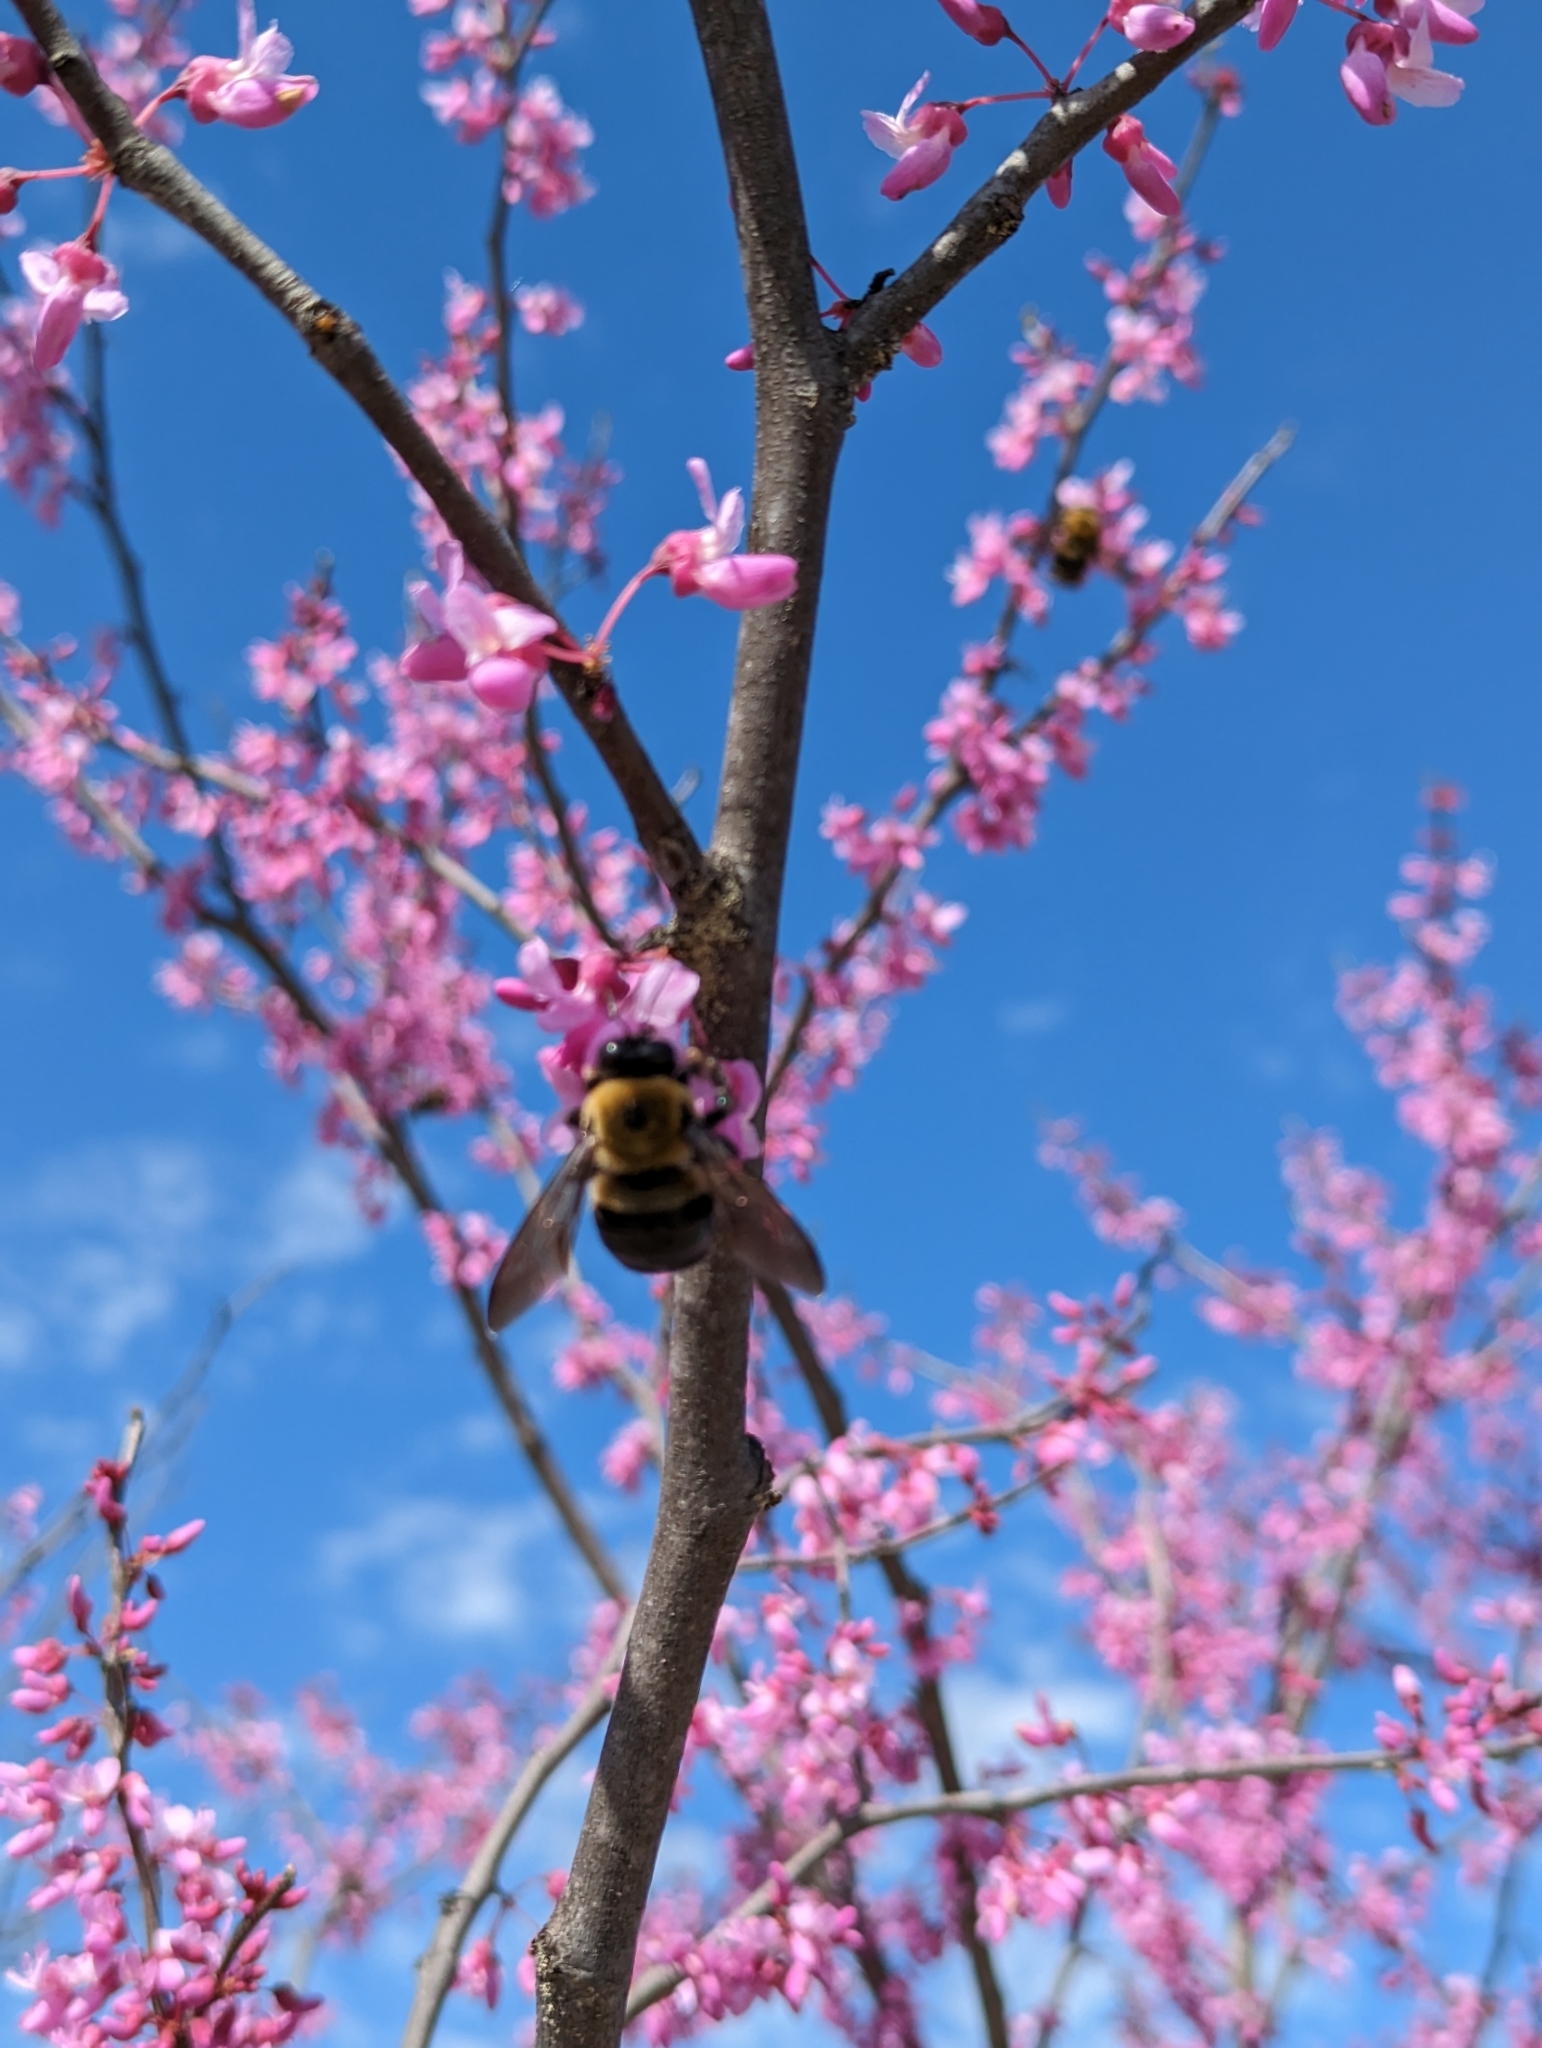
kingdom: Animalia
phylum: Arthropoda
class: Insecta
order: Hymenoptera
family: Apidae
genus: Xylocopa
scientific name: Xylocopa virginica
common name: Carpenter bee
